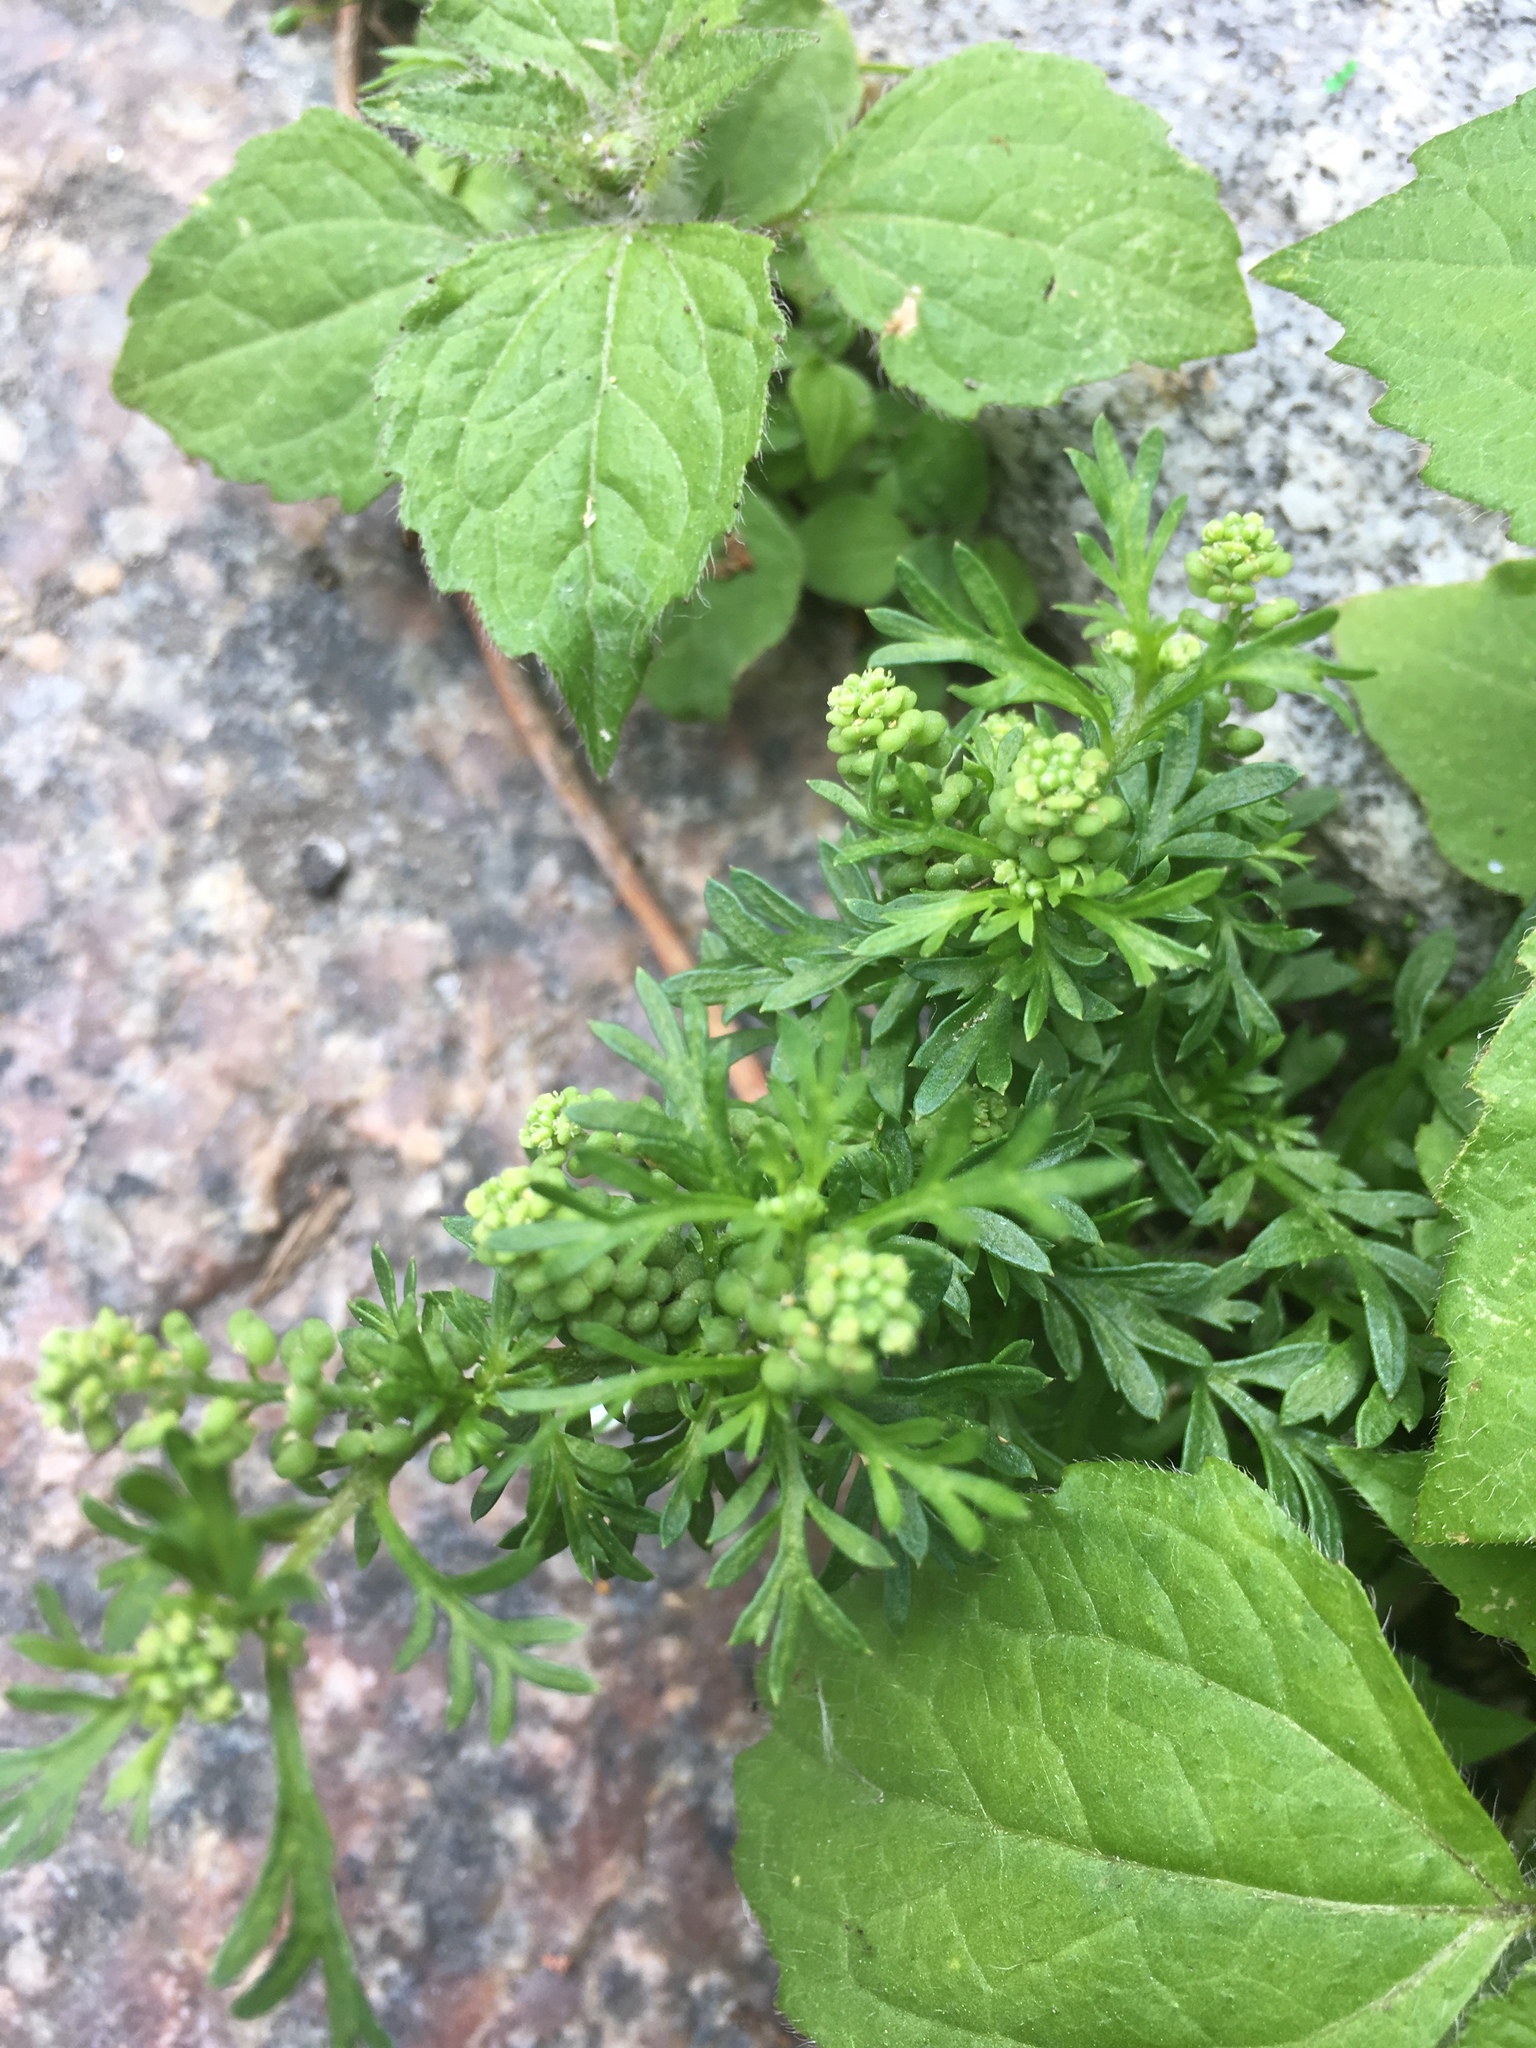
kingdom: Plantae
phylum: Tracheophyta
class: Magnoliopsida
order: Brassicales
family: Brassicaceae
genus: Lepidium
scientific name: Lepidium didymum
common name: Lesser swinecress
